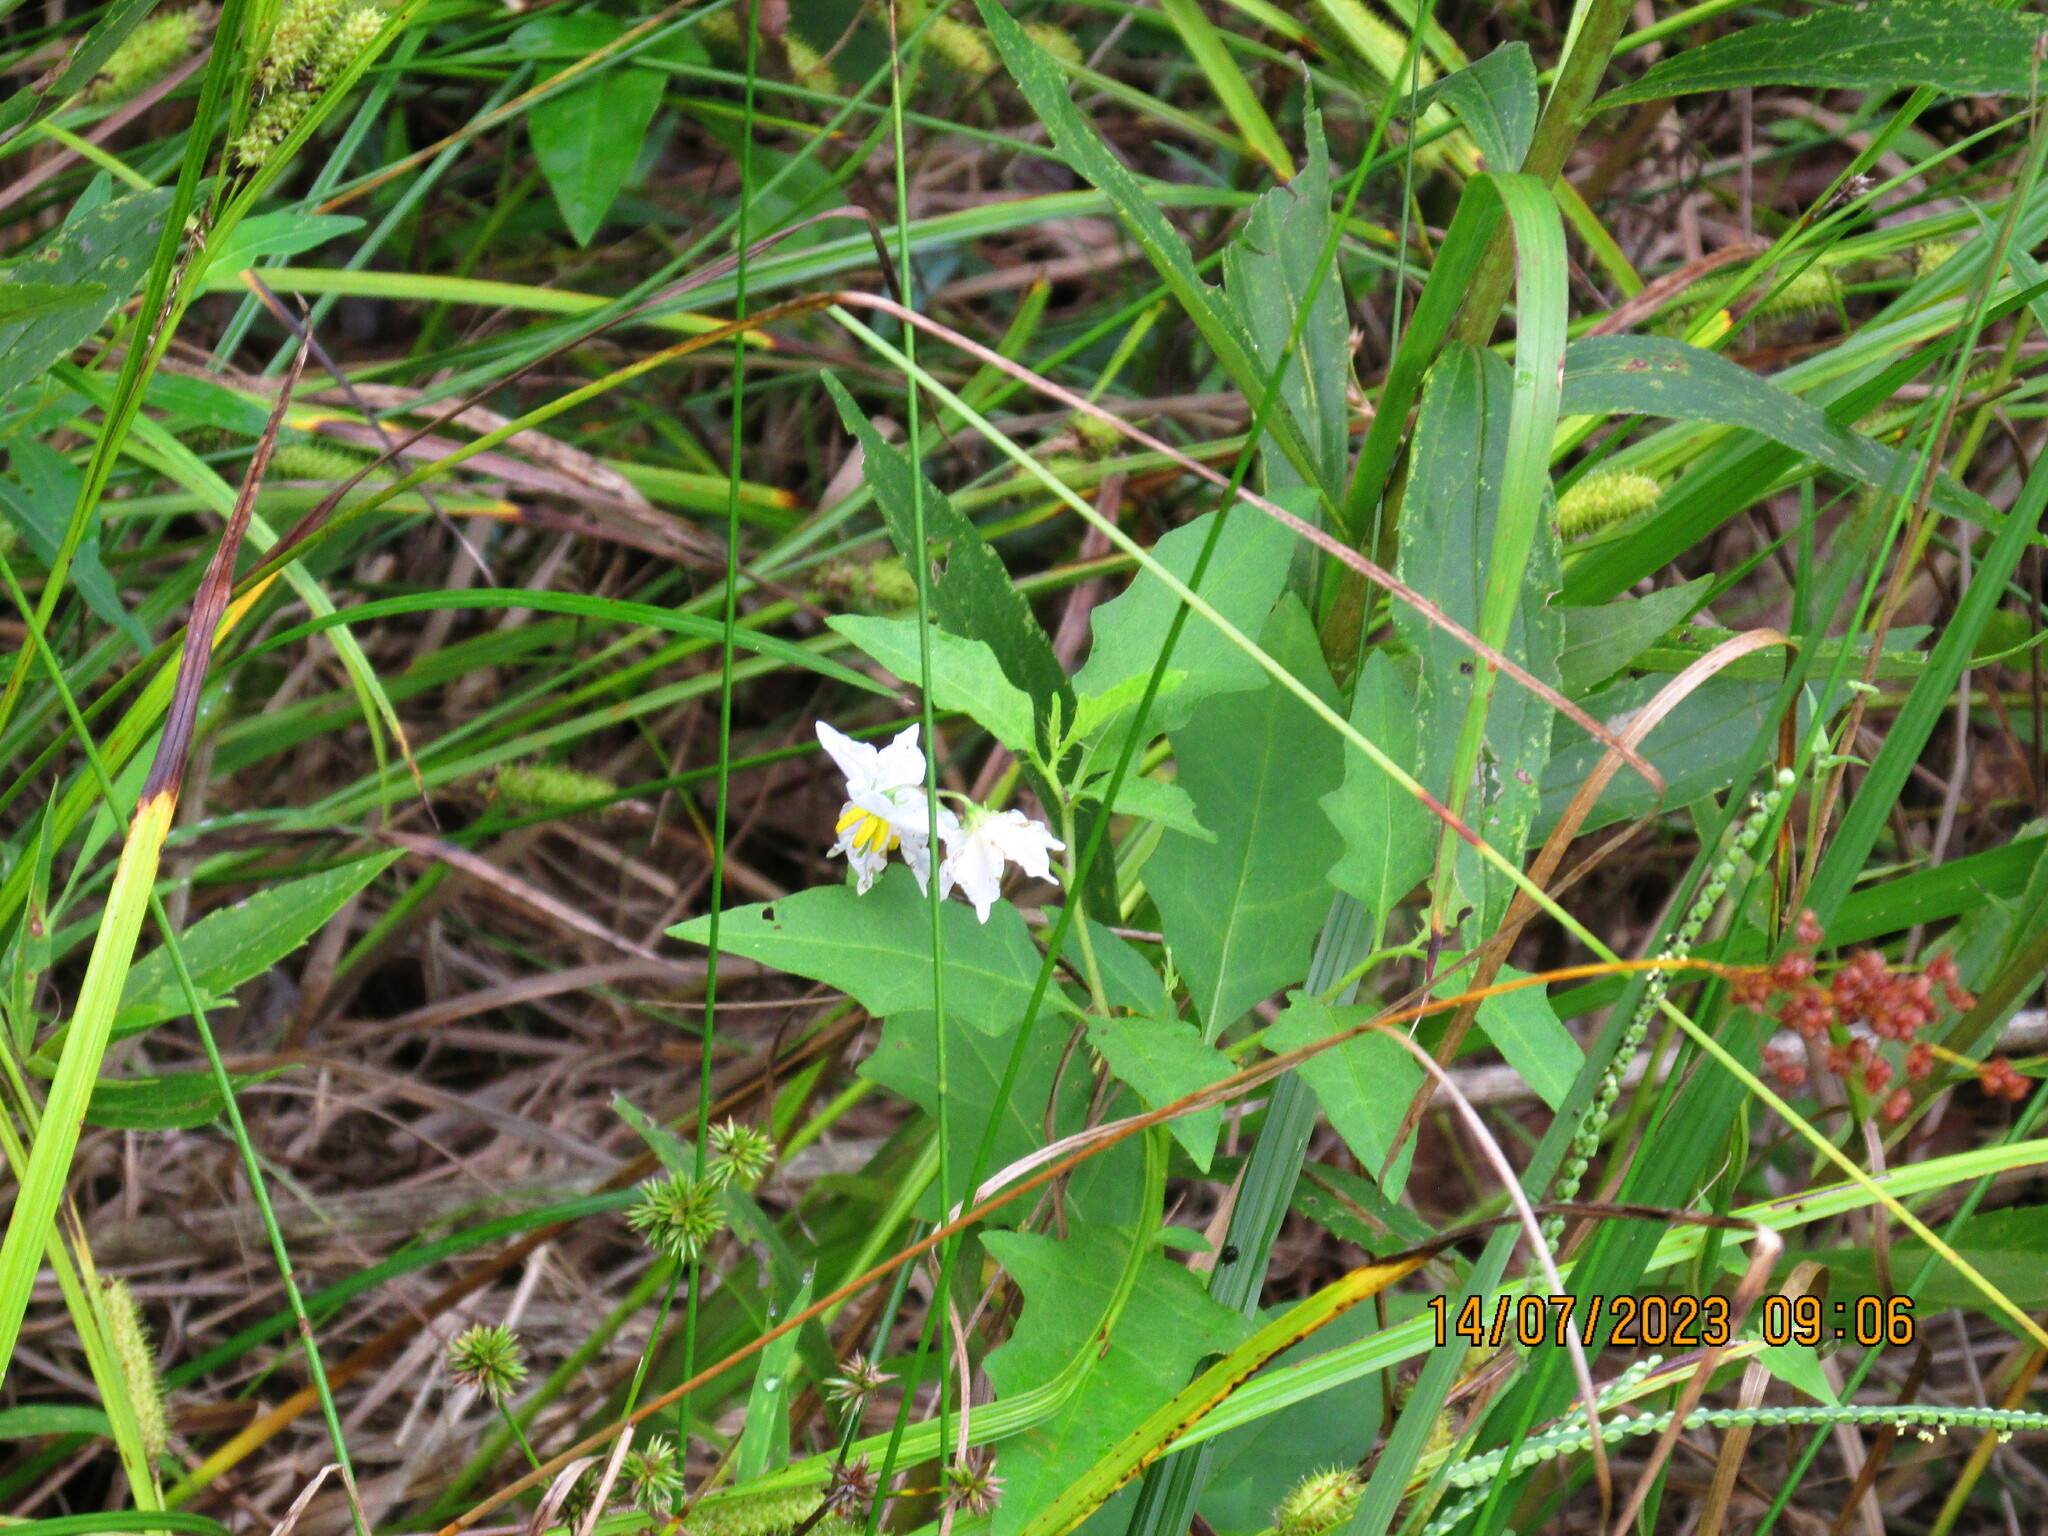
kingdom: Plantae
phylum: Tracheophyta
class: Magnoliopsida
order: Solanales
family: Solanaceae
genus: Solanum
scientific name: Solanum carolinense
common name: Horse-nettle
